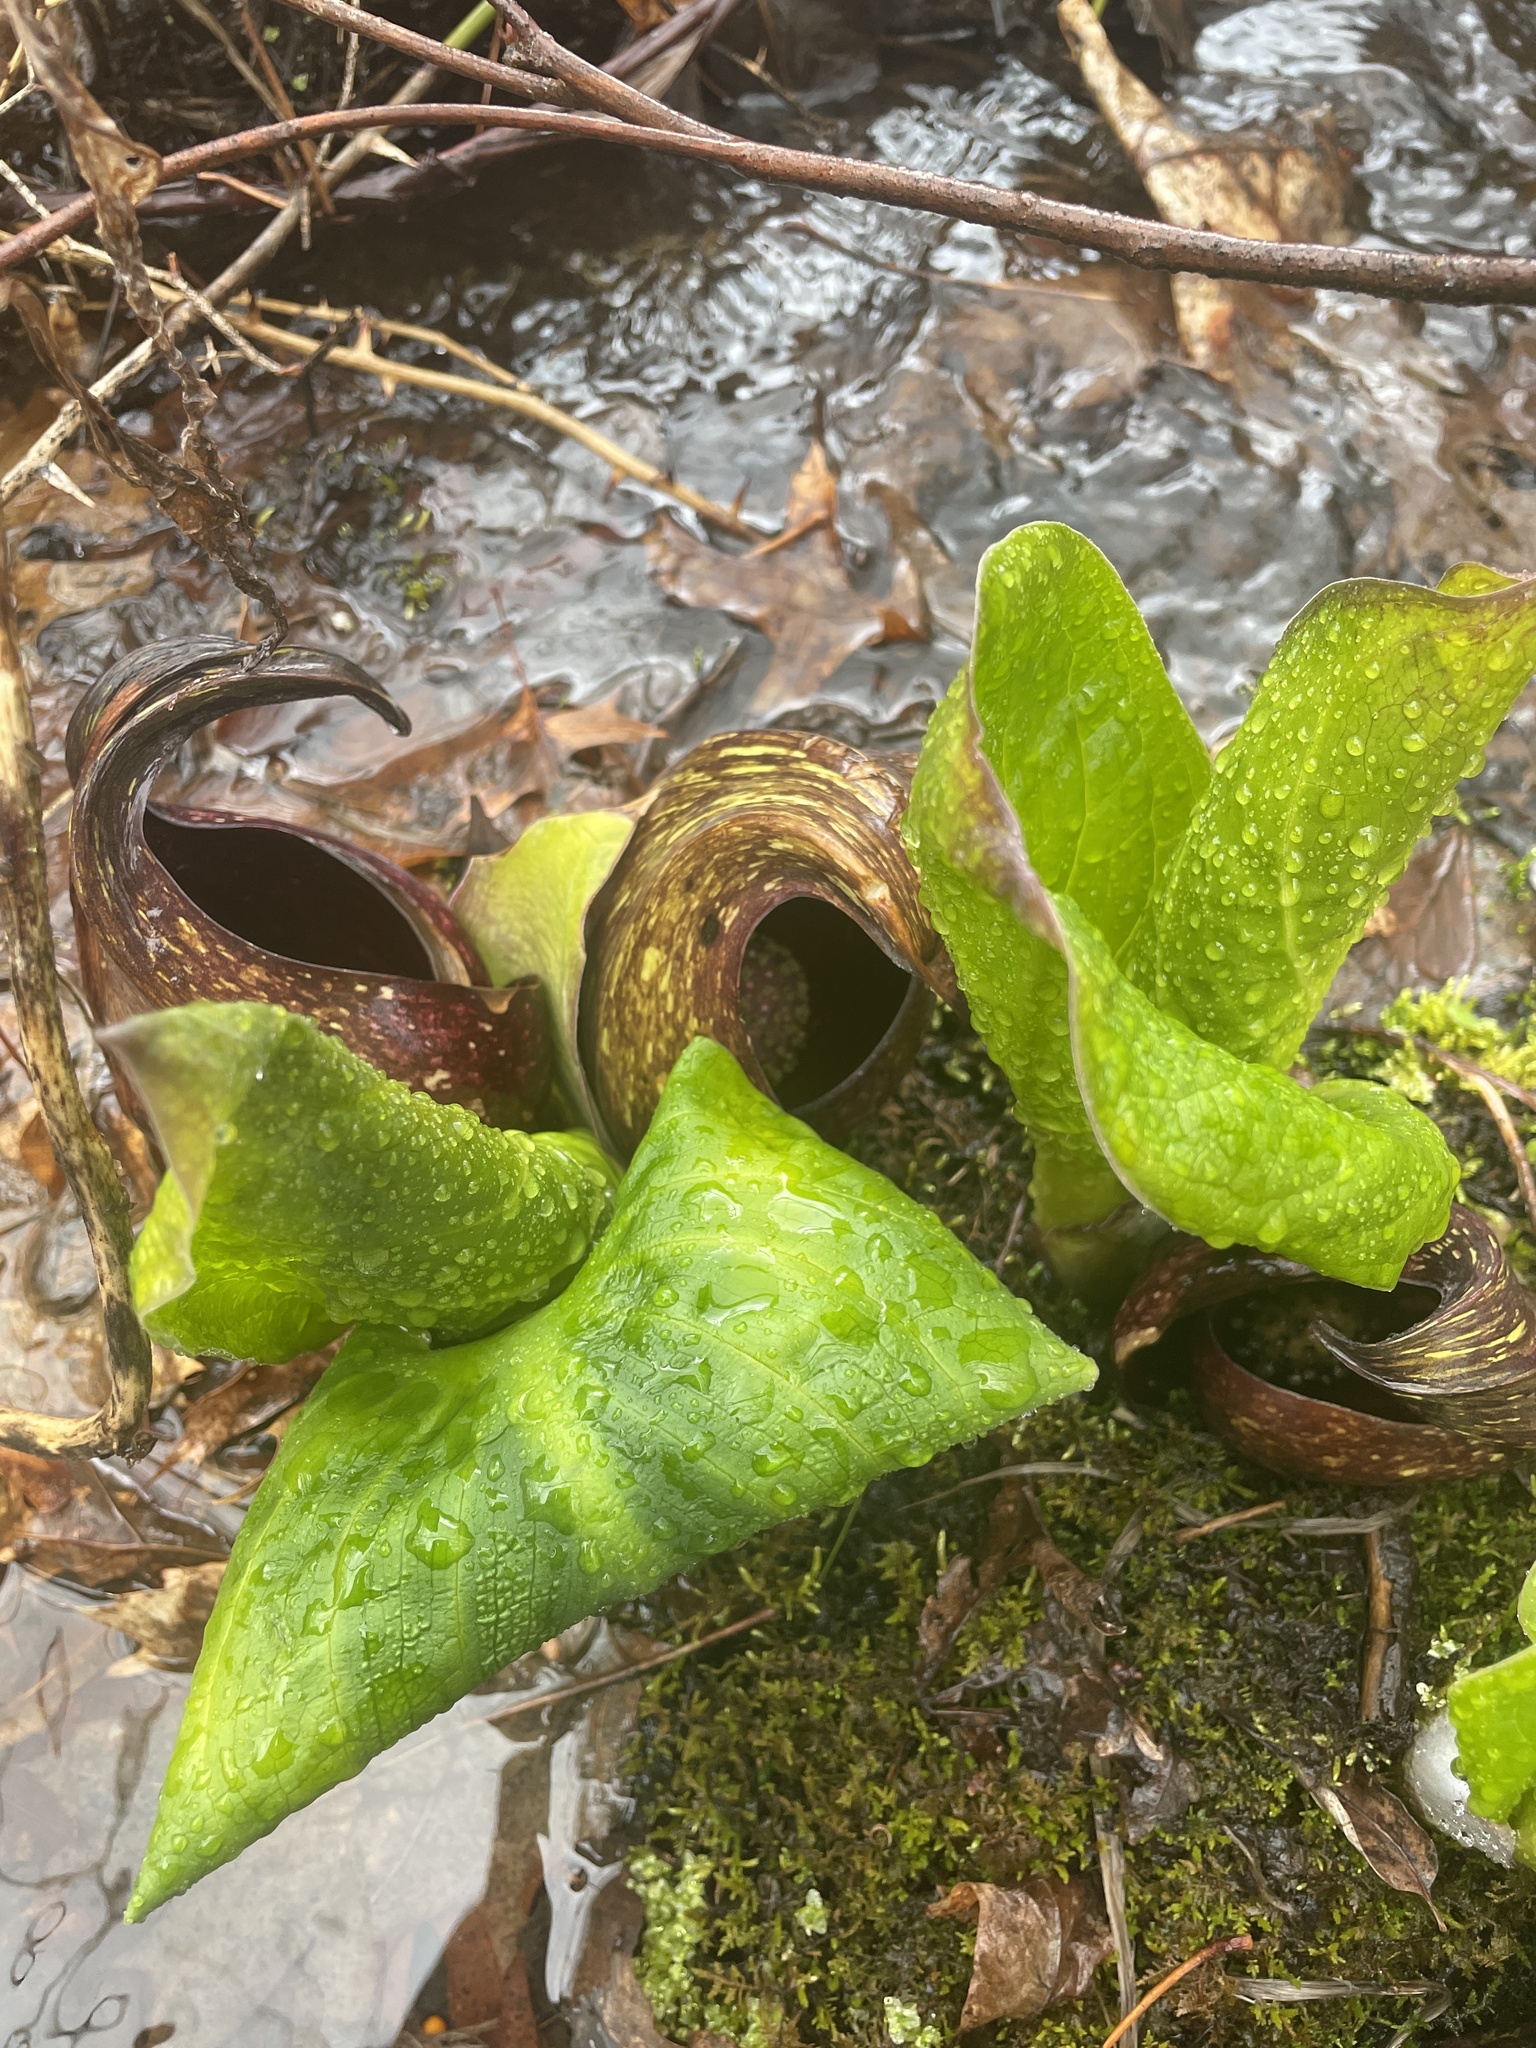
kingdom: Plantae
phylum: Tracheophyta
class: Liliopsida
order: Alismatales
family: Araceae
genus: Symplocarpus
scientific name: Symplocarpus foetidus
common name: Eastern skunk cabbage
